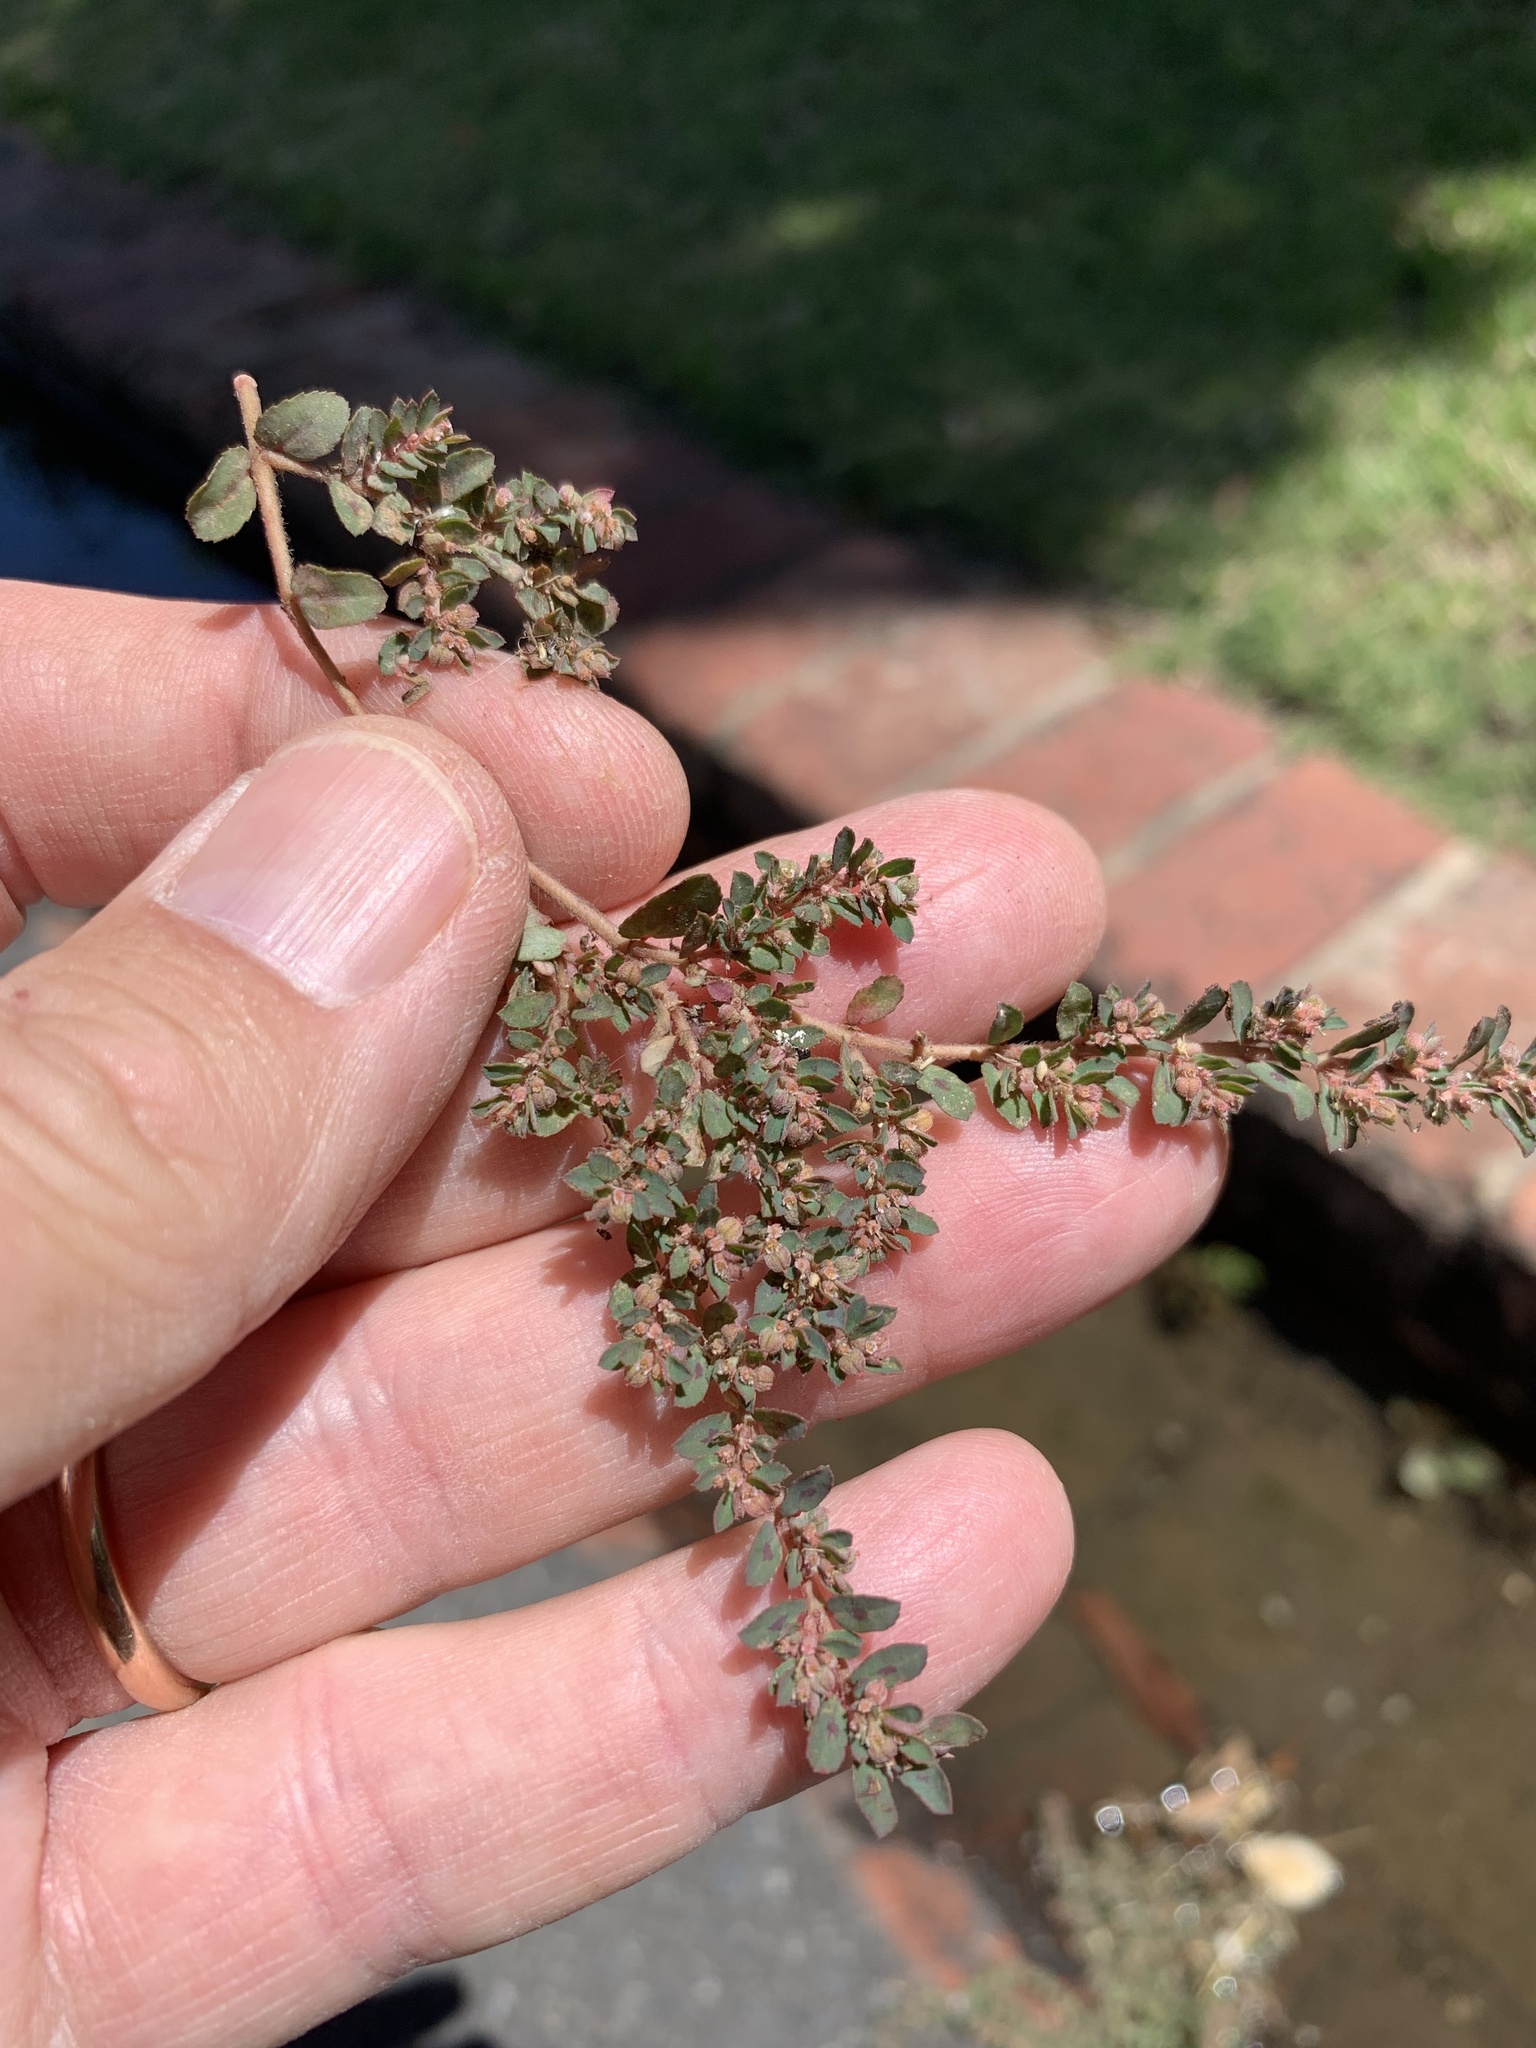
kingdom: Plantae
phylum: Tracheophyta
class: Magnoliopsida
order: Malpighiales
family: Euphorbiaceae
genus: Euphorbia
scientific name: Euphorbia maculata
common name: Spotted spurge
